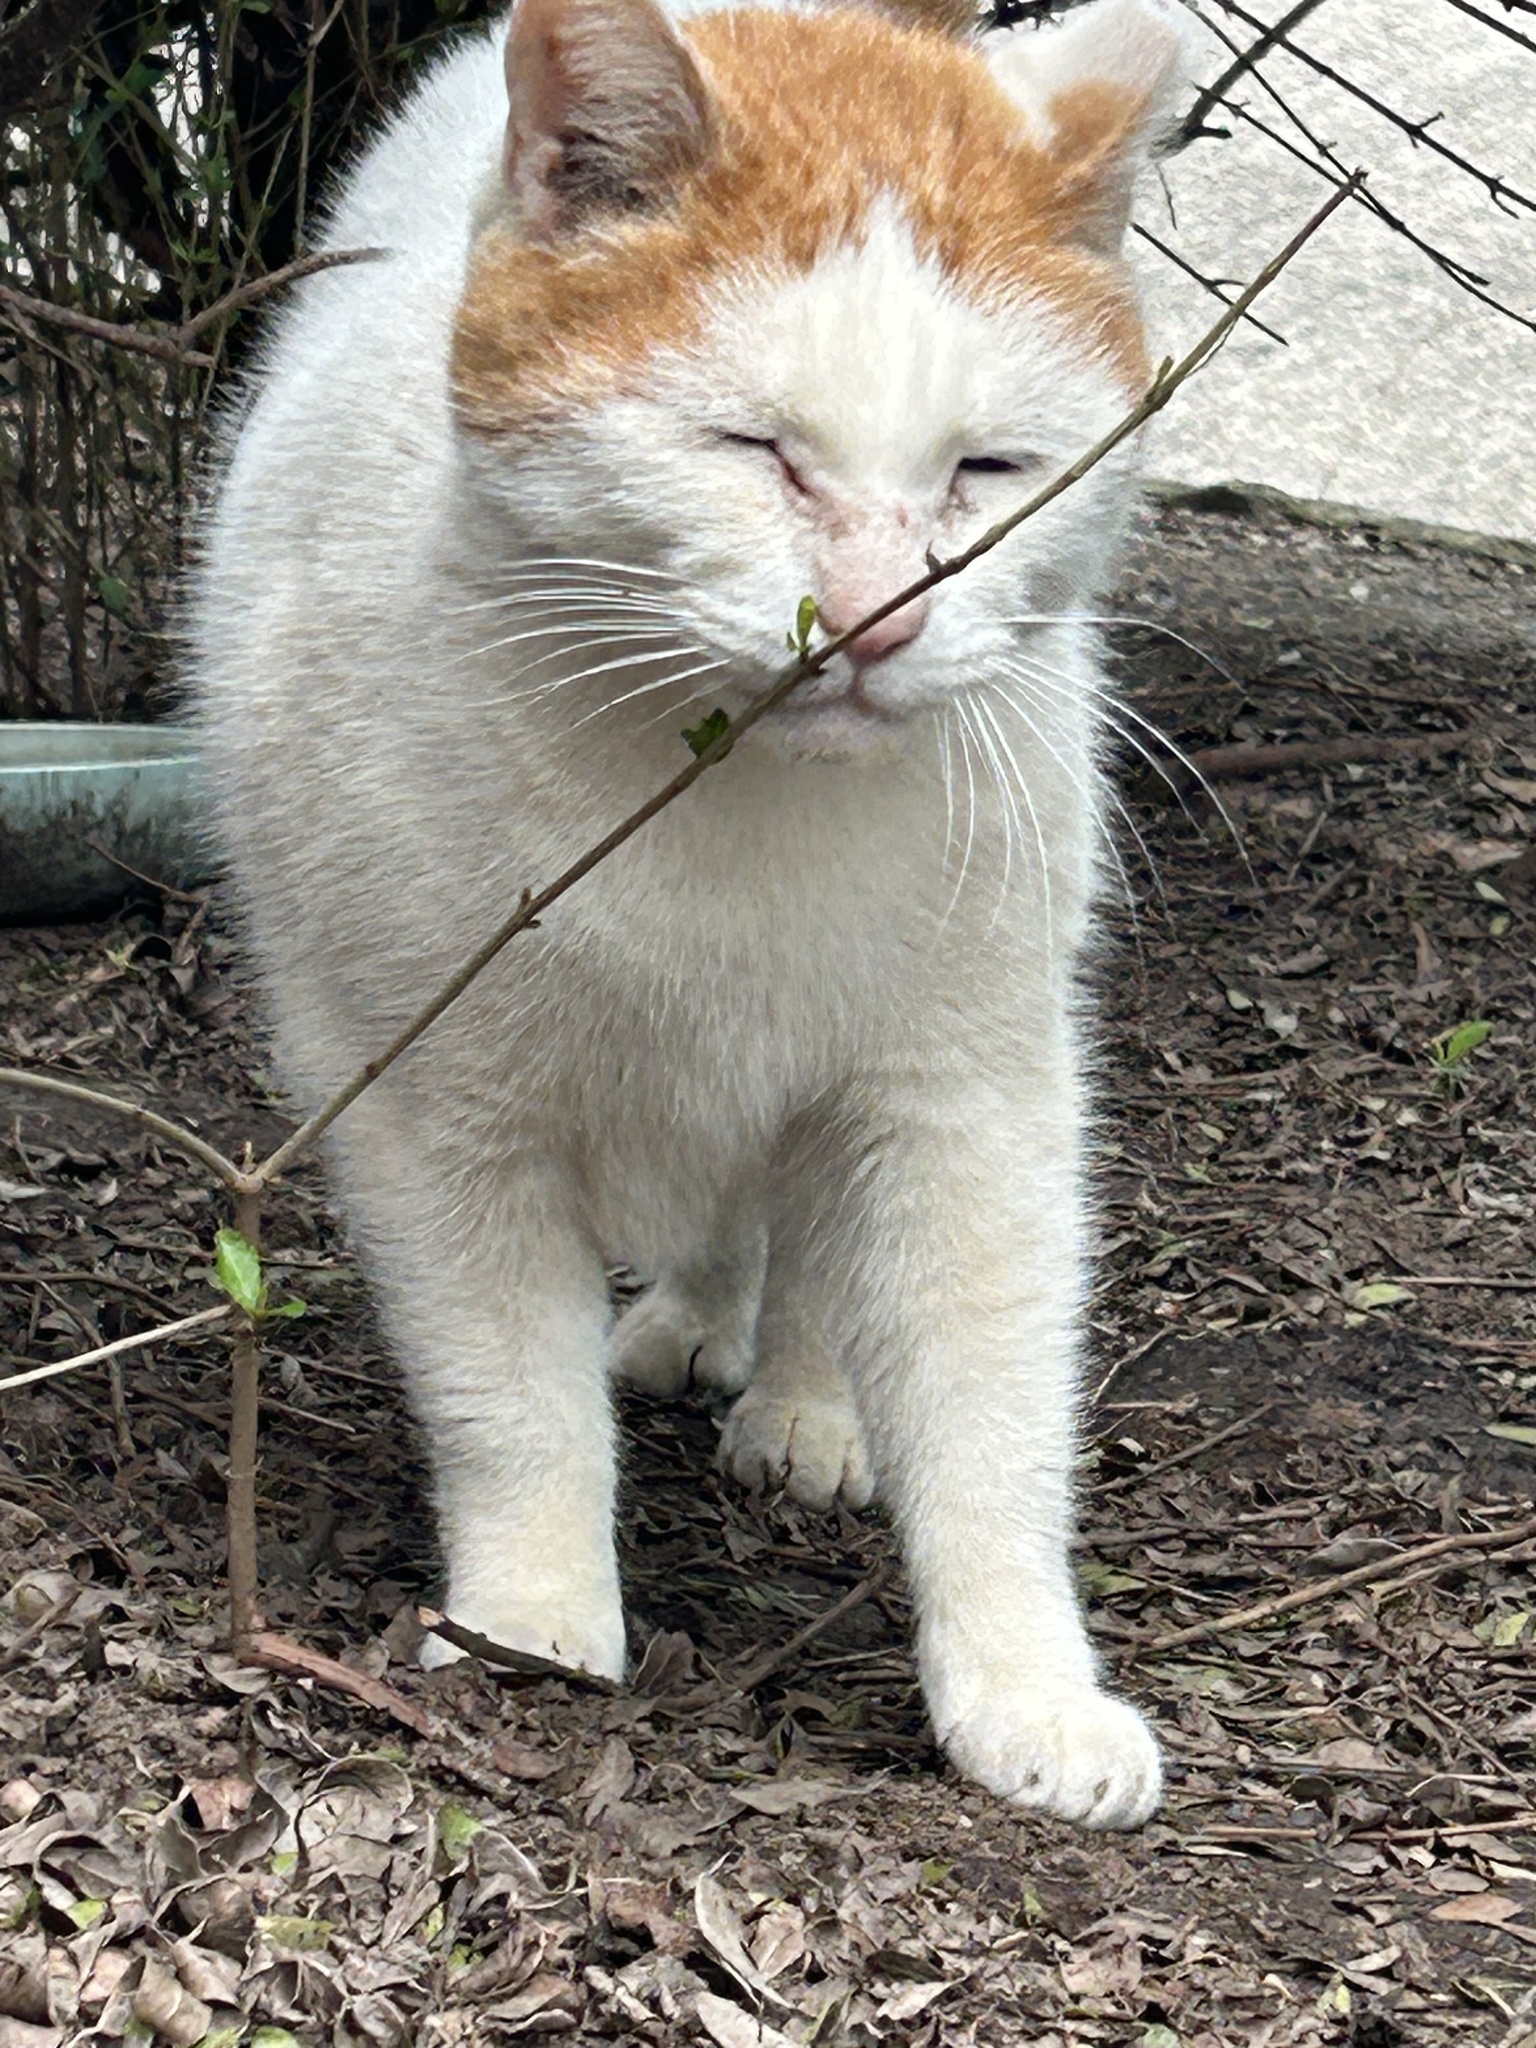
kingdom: Animalia
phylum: Chordata
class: Mammalia
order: Carnivora
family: Felidae
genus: Felis
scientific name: Felis catus
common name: Domestic cat
